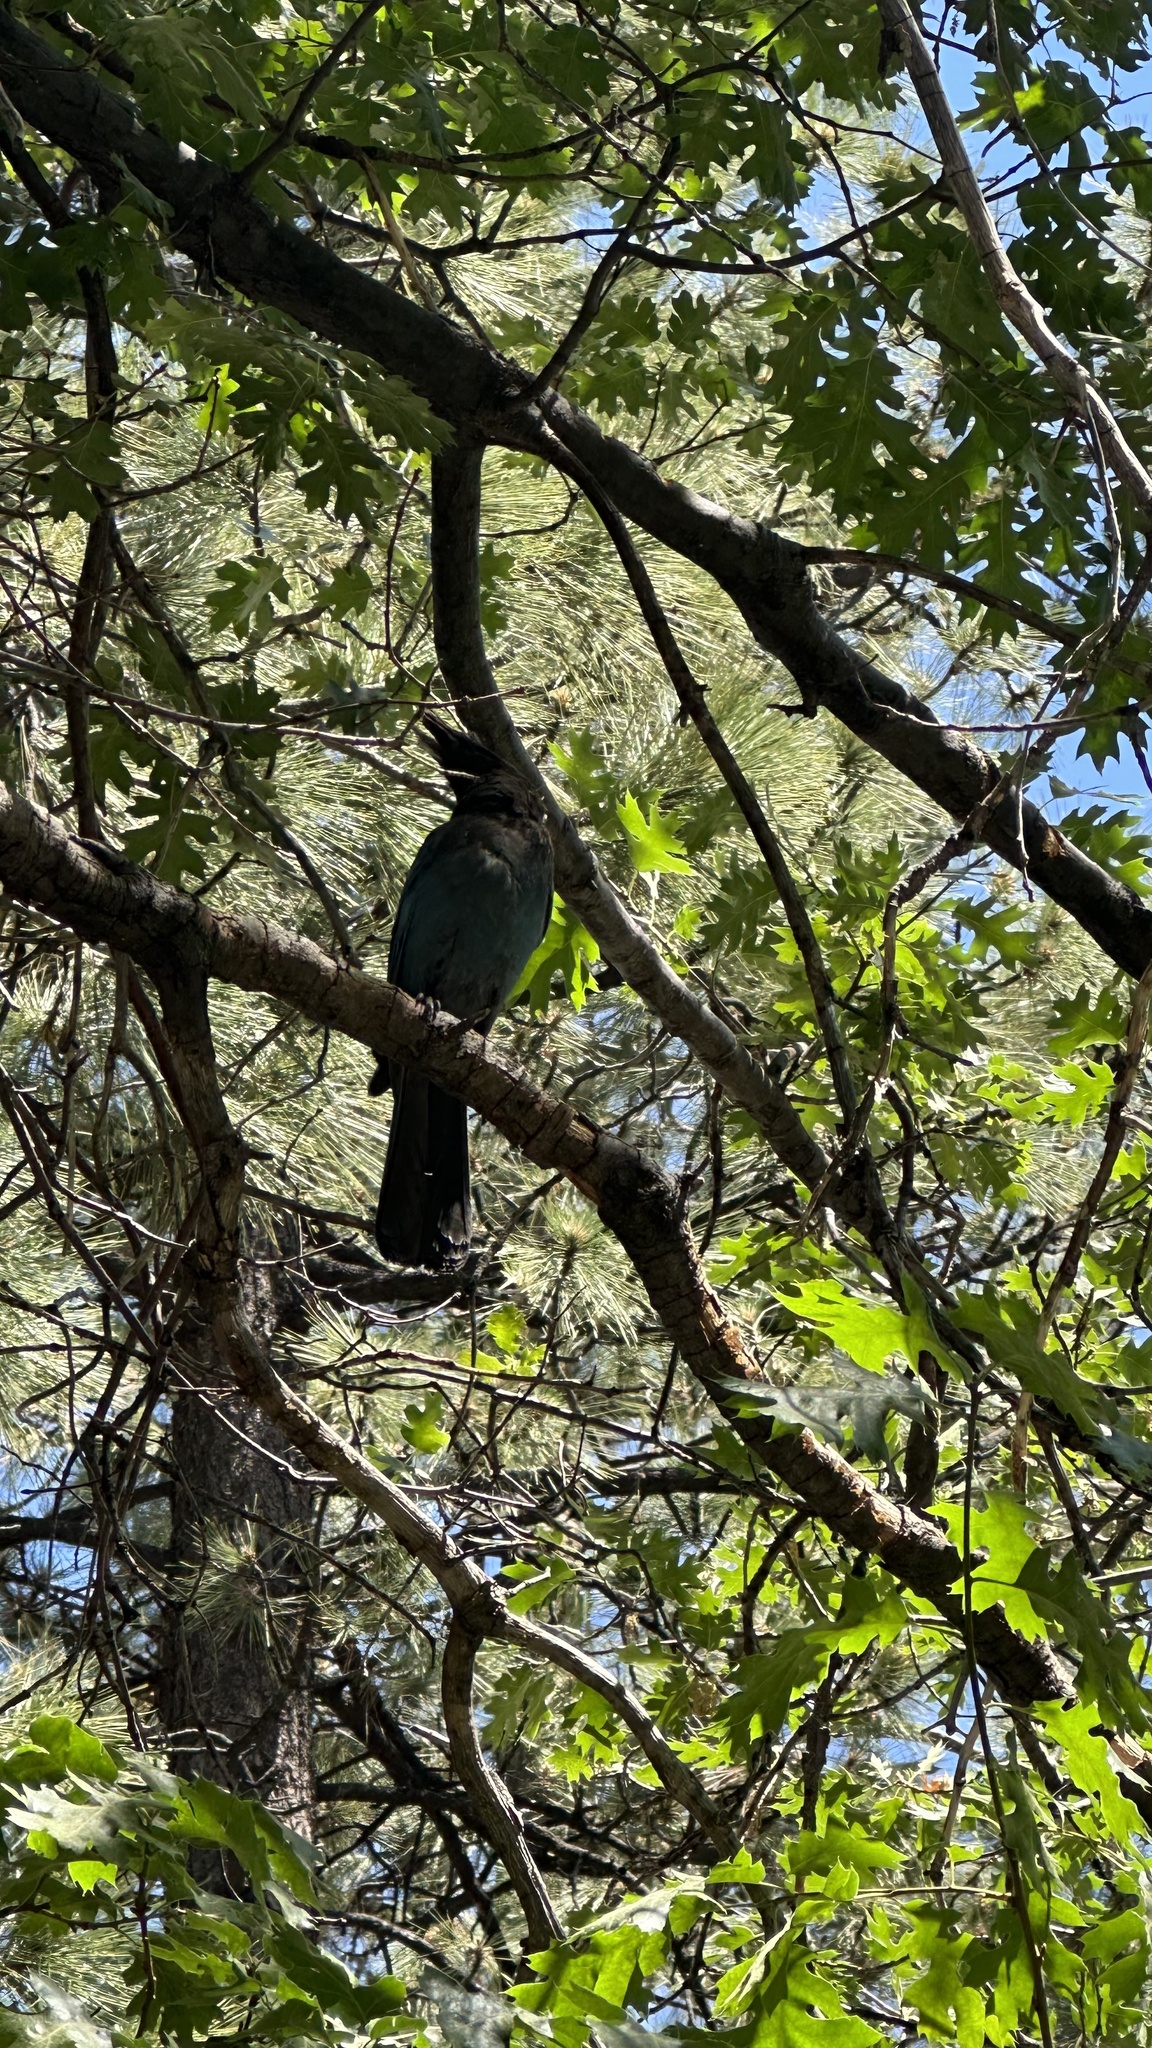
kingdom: Animalia
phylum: Chordata
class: Aves
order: Passeriformes
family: Corvidae
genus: Cyanocitta
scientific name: Cyanocitta stelleri
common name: Steller's jay
